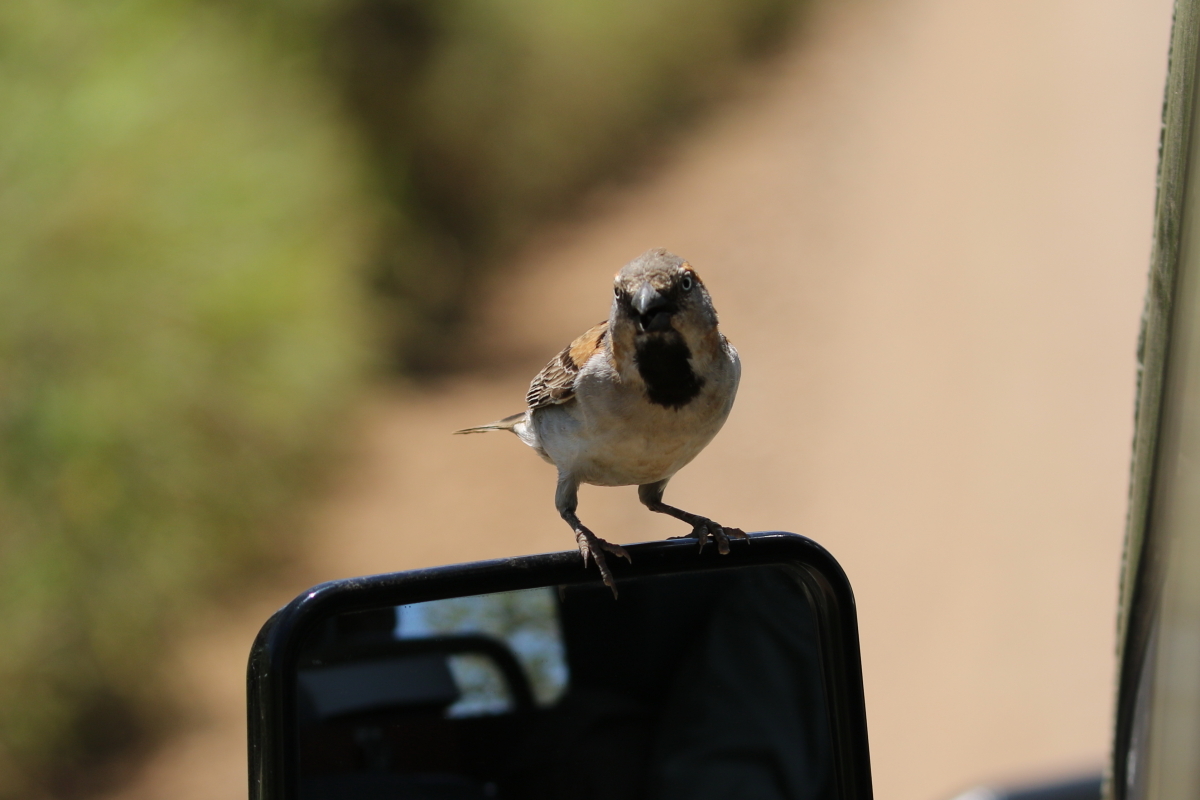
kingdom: Animalia
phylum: Chordata
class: Aves
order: Passeriformes
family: Passeridae
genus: Passer
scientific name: Passer rufocinctus
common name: Kenya sparrow
